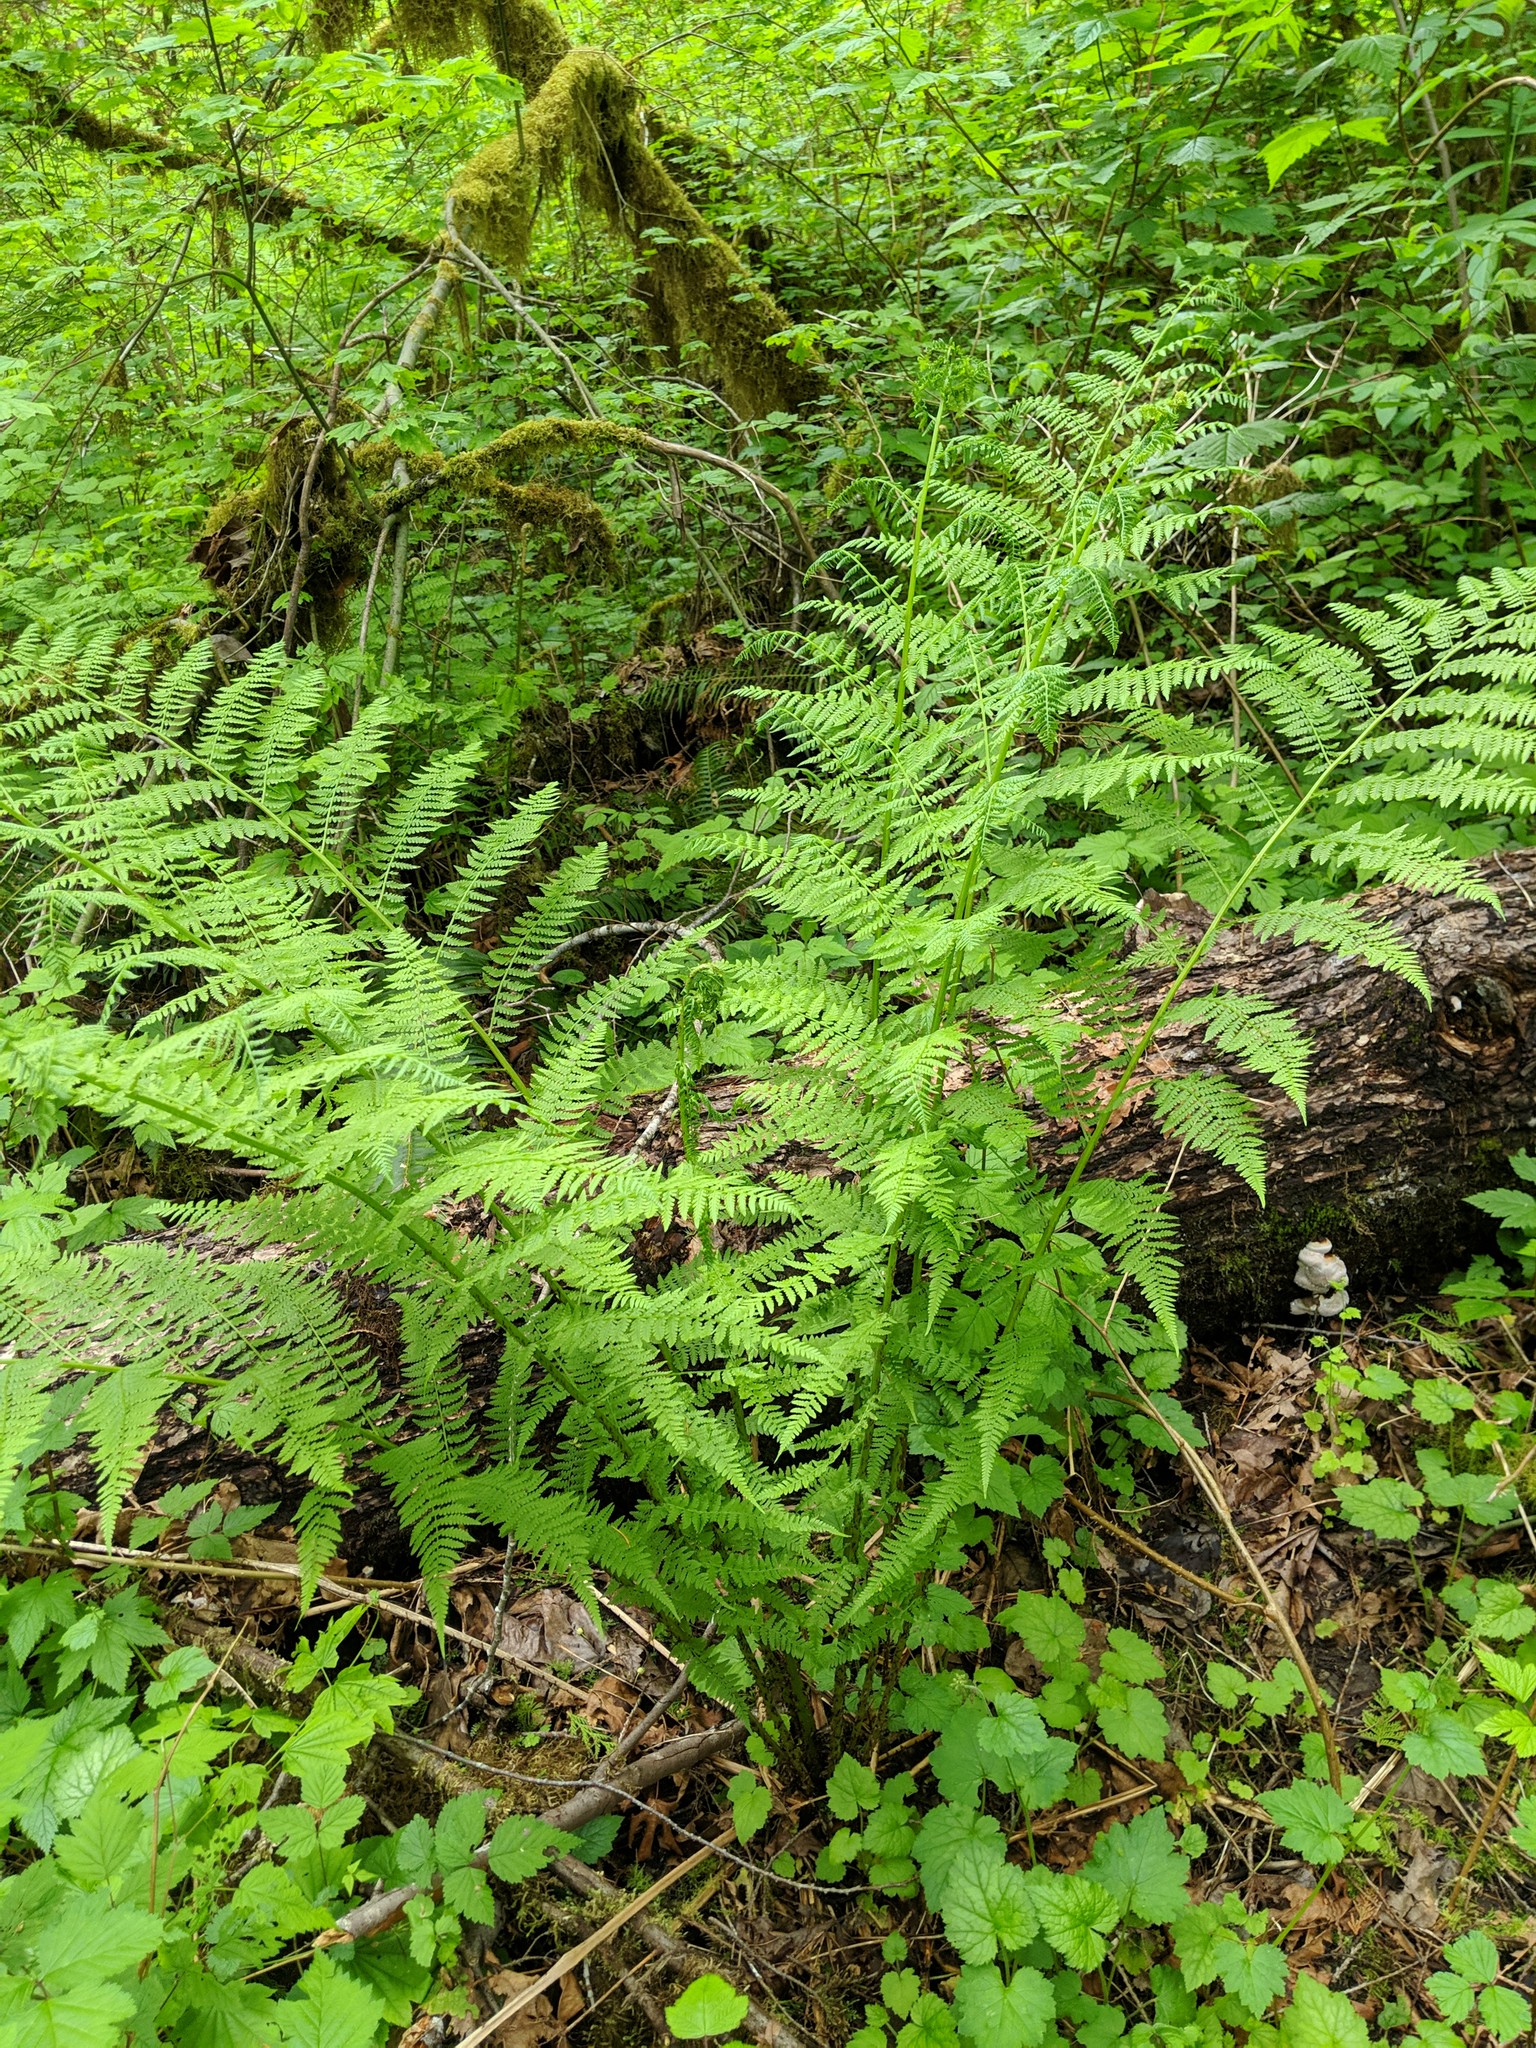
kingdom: Plantae
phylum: Tracheophyta
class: Polypodiopsida
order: Polypodiales
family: Athyriaceae
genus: Athyrium
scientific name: Athyrium cyclosorum
